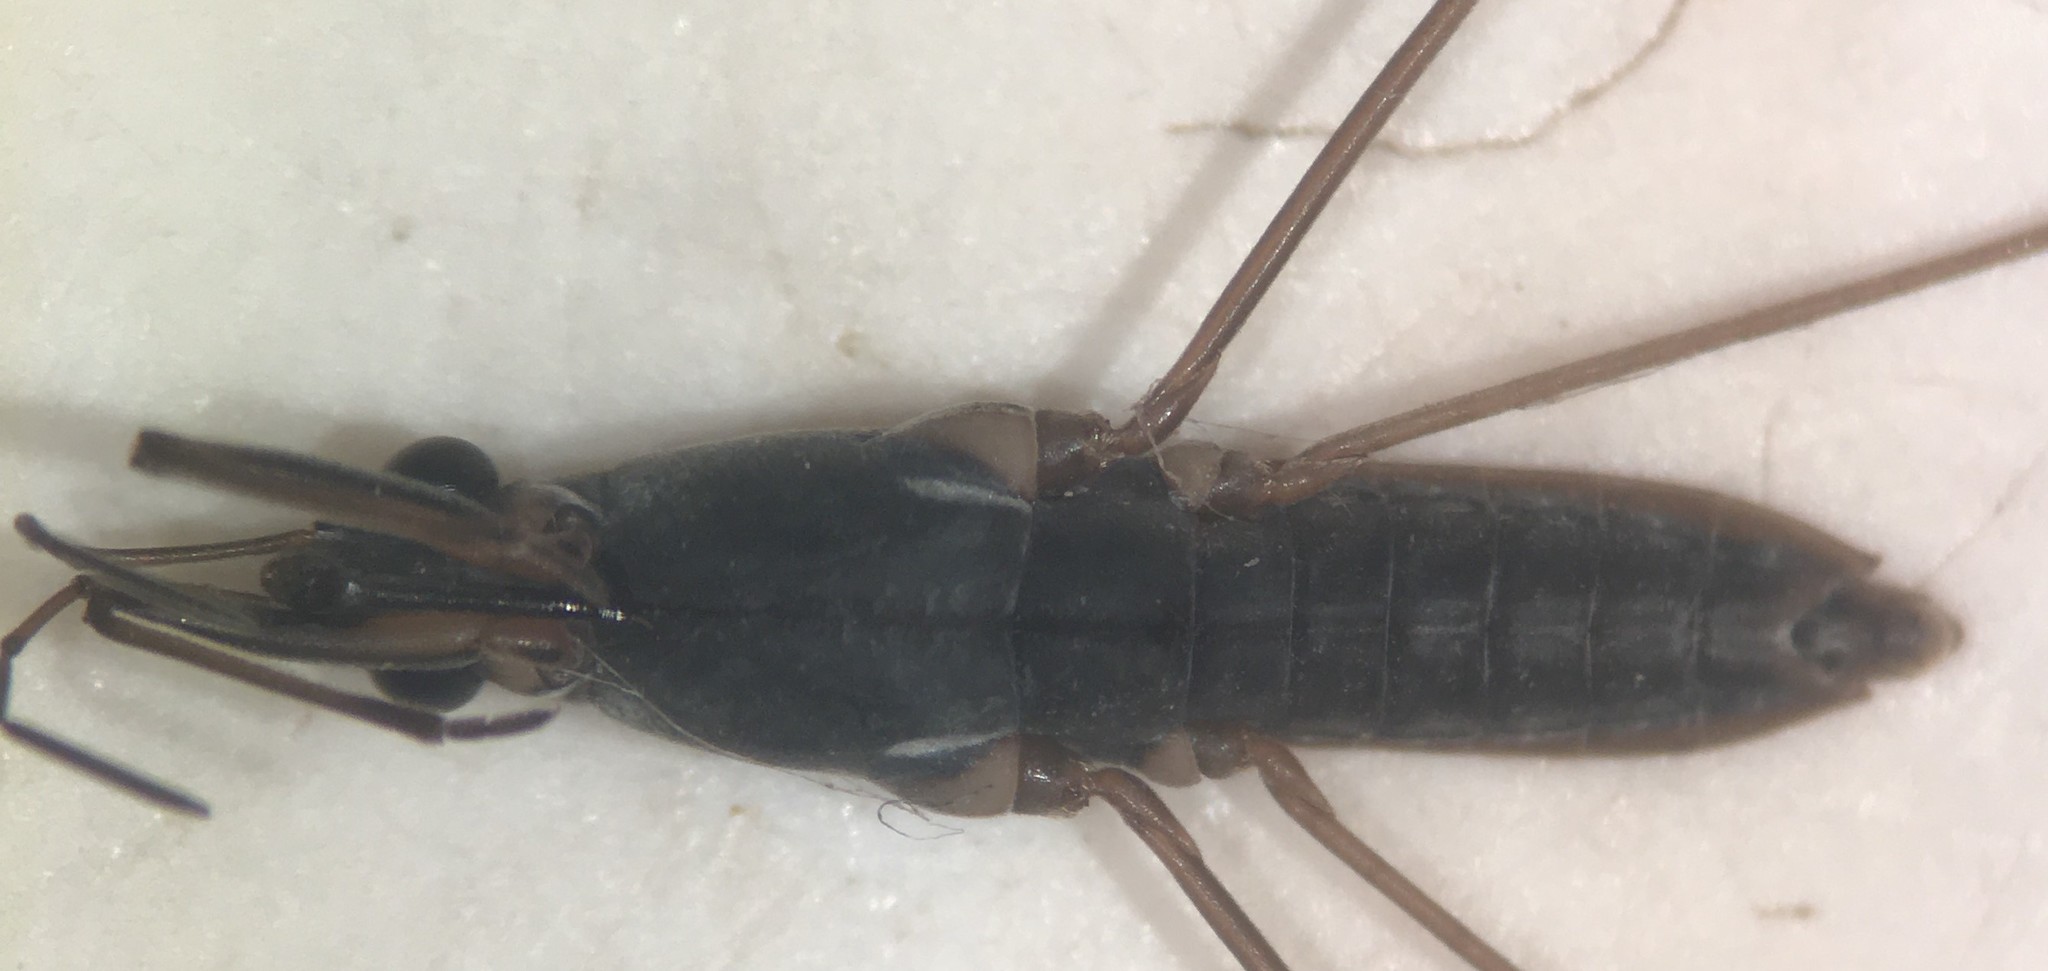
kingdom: Animalia
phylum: Arthropoda
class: Insecta
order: Hemiptera
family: Gerridae
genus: Gerris
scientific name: Gerris marginatus
